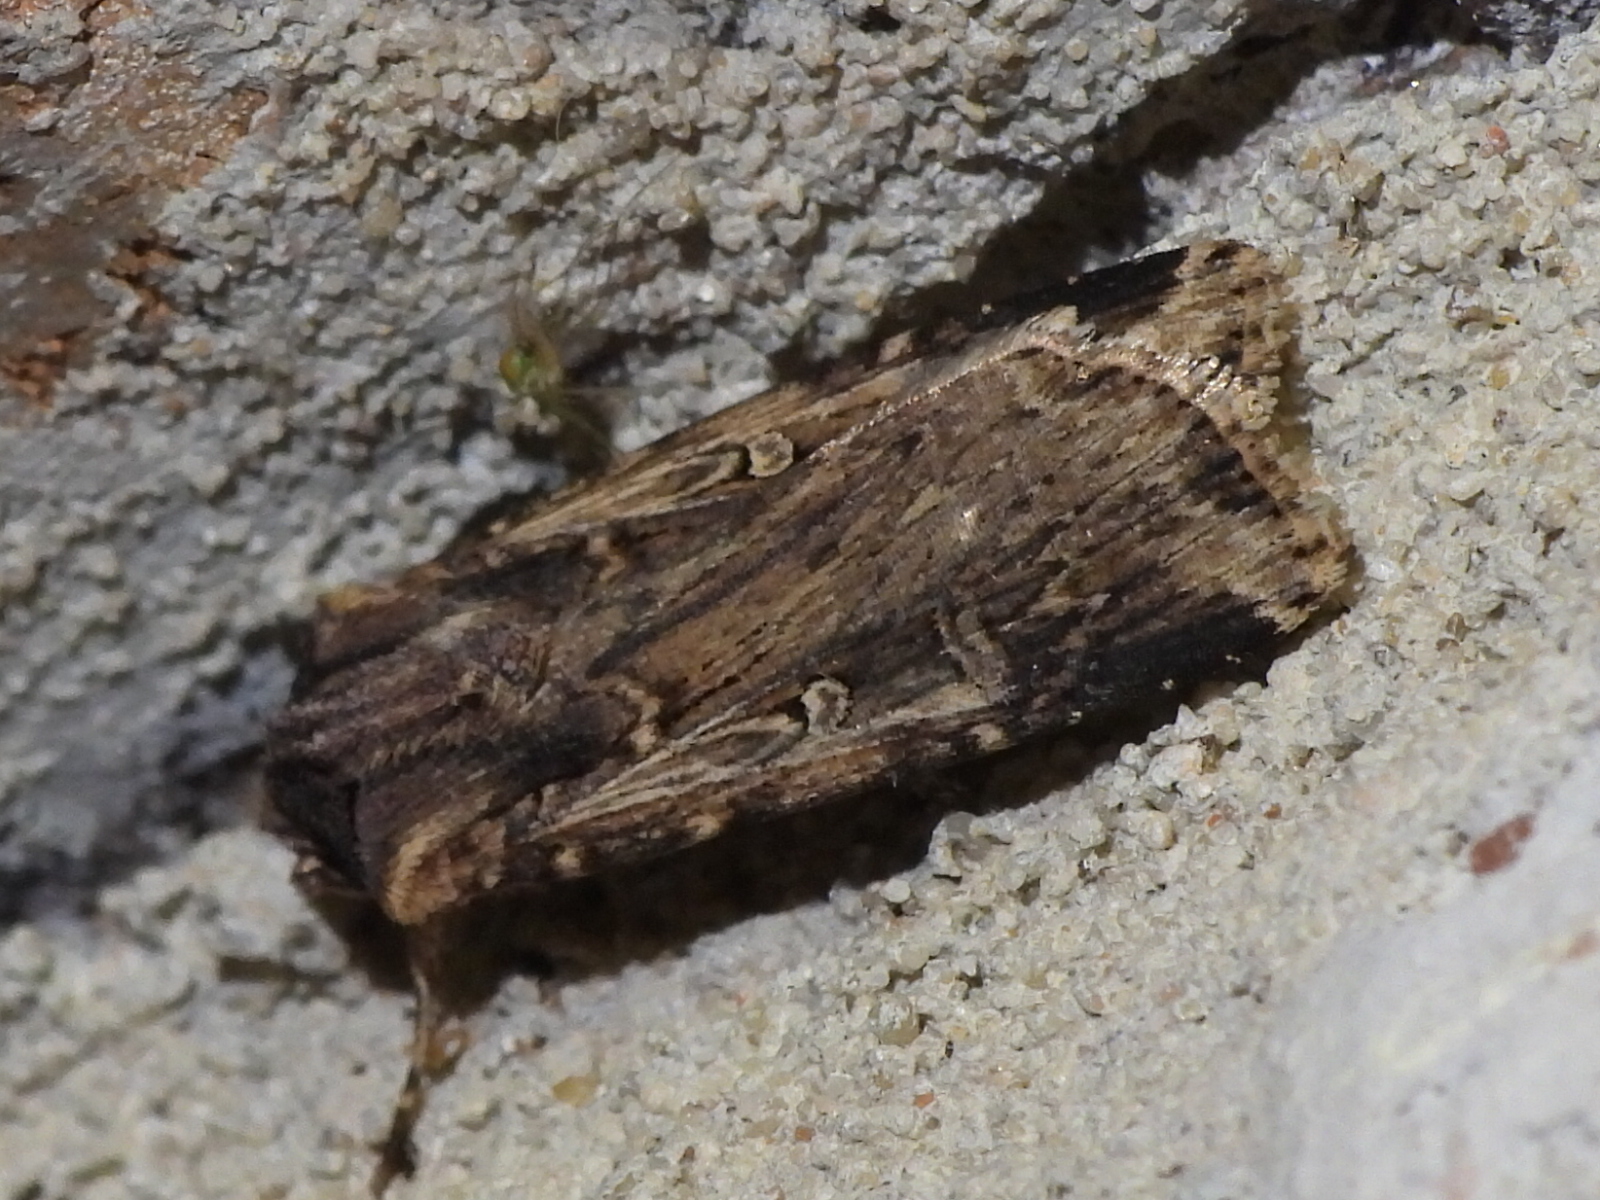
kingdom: Animalia
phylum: Arthropoda
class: Insecta
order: Lepidoptera
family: Noctuidae
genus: Feltia
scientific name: Feltia subterranea
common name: Granulate cutworm
